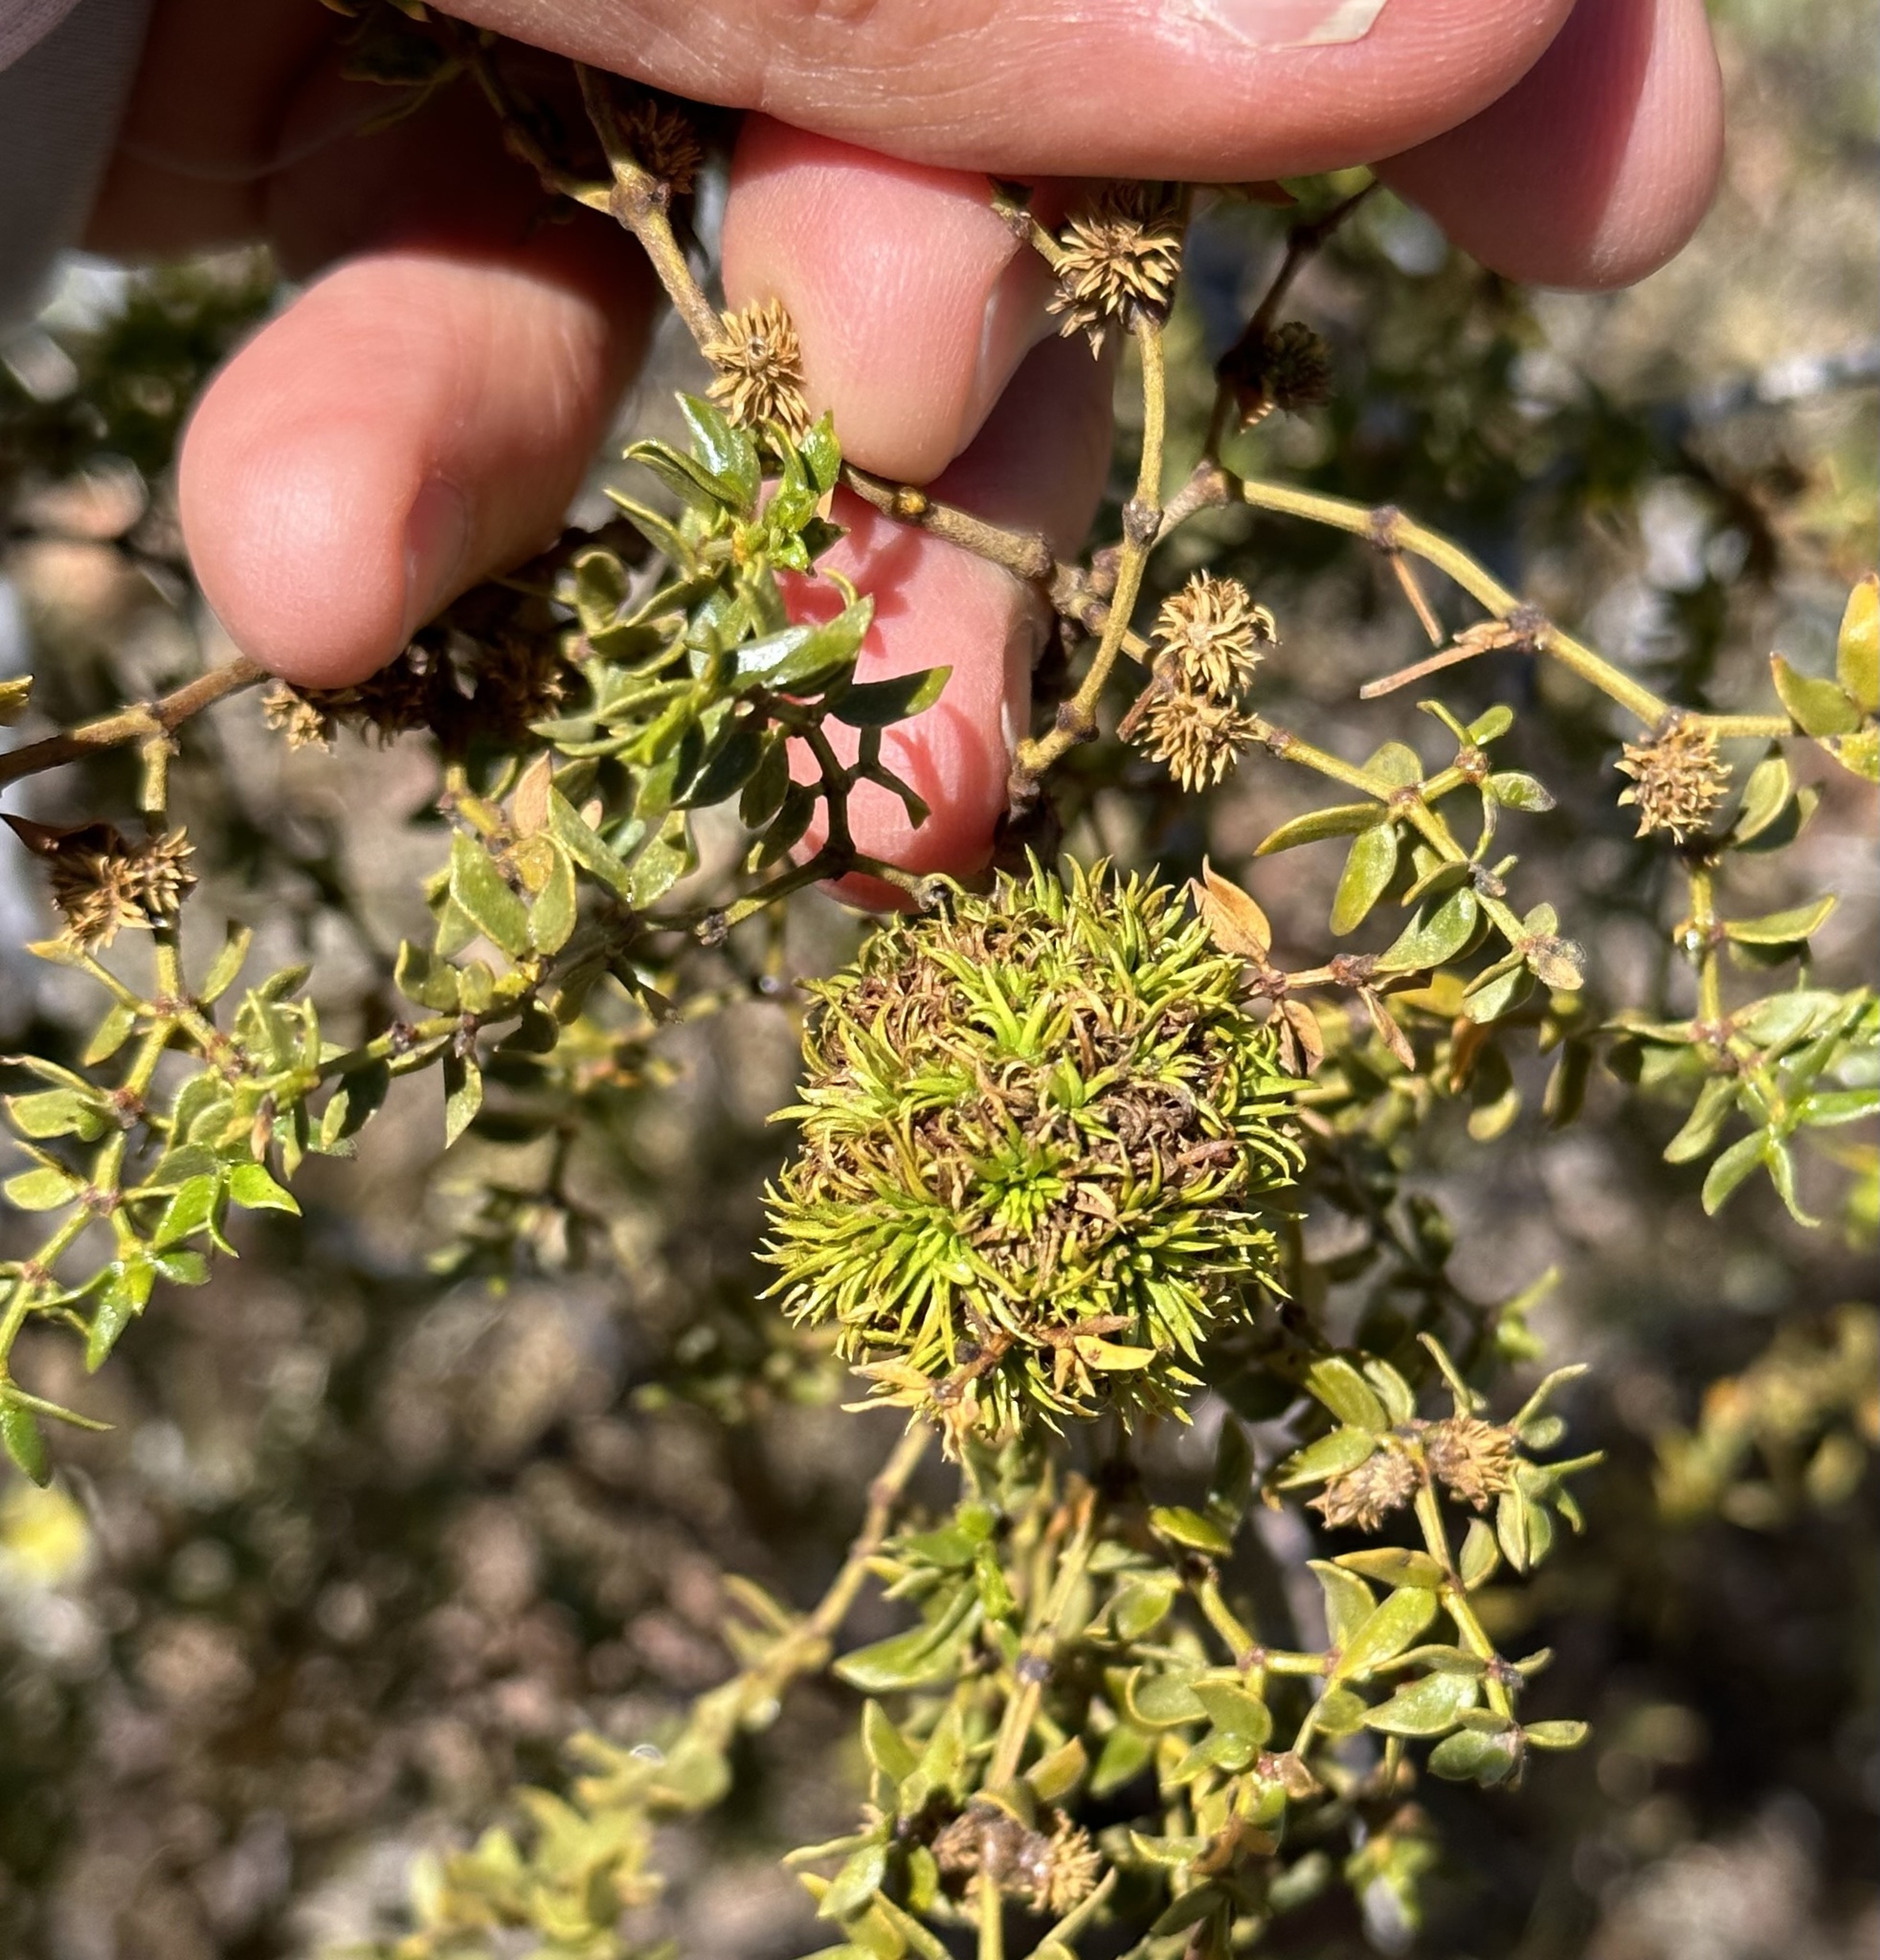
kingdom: Animalia
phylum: Arthropoda
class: Insecta
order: Diptera
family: Cecidomyiidae
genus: Asphondylia
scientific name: Asphondylia rosetta
